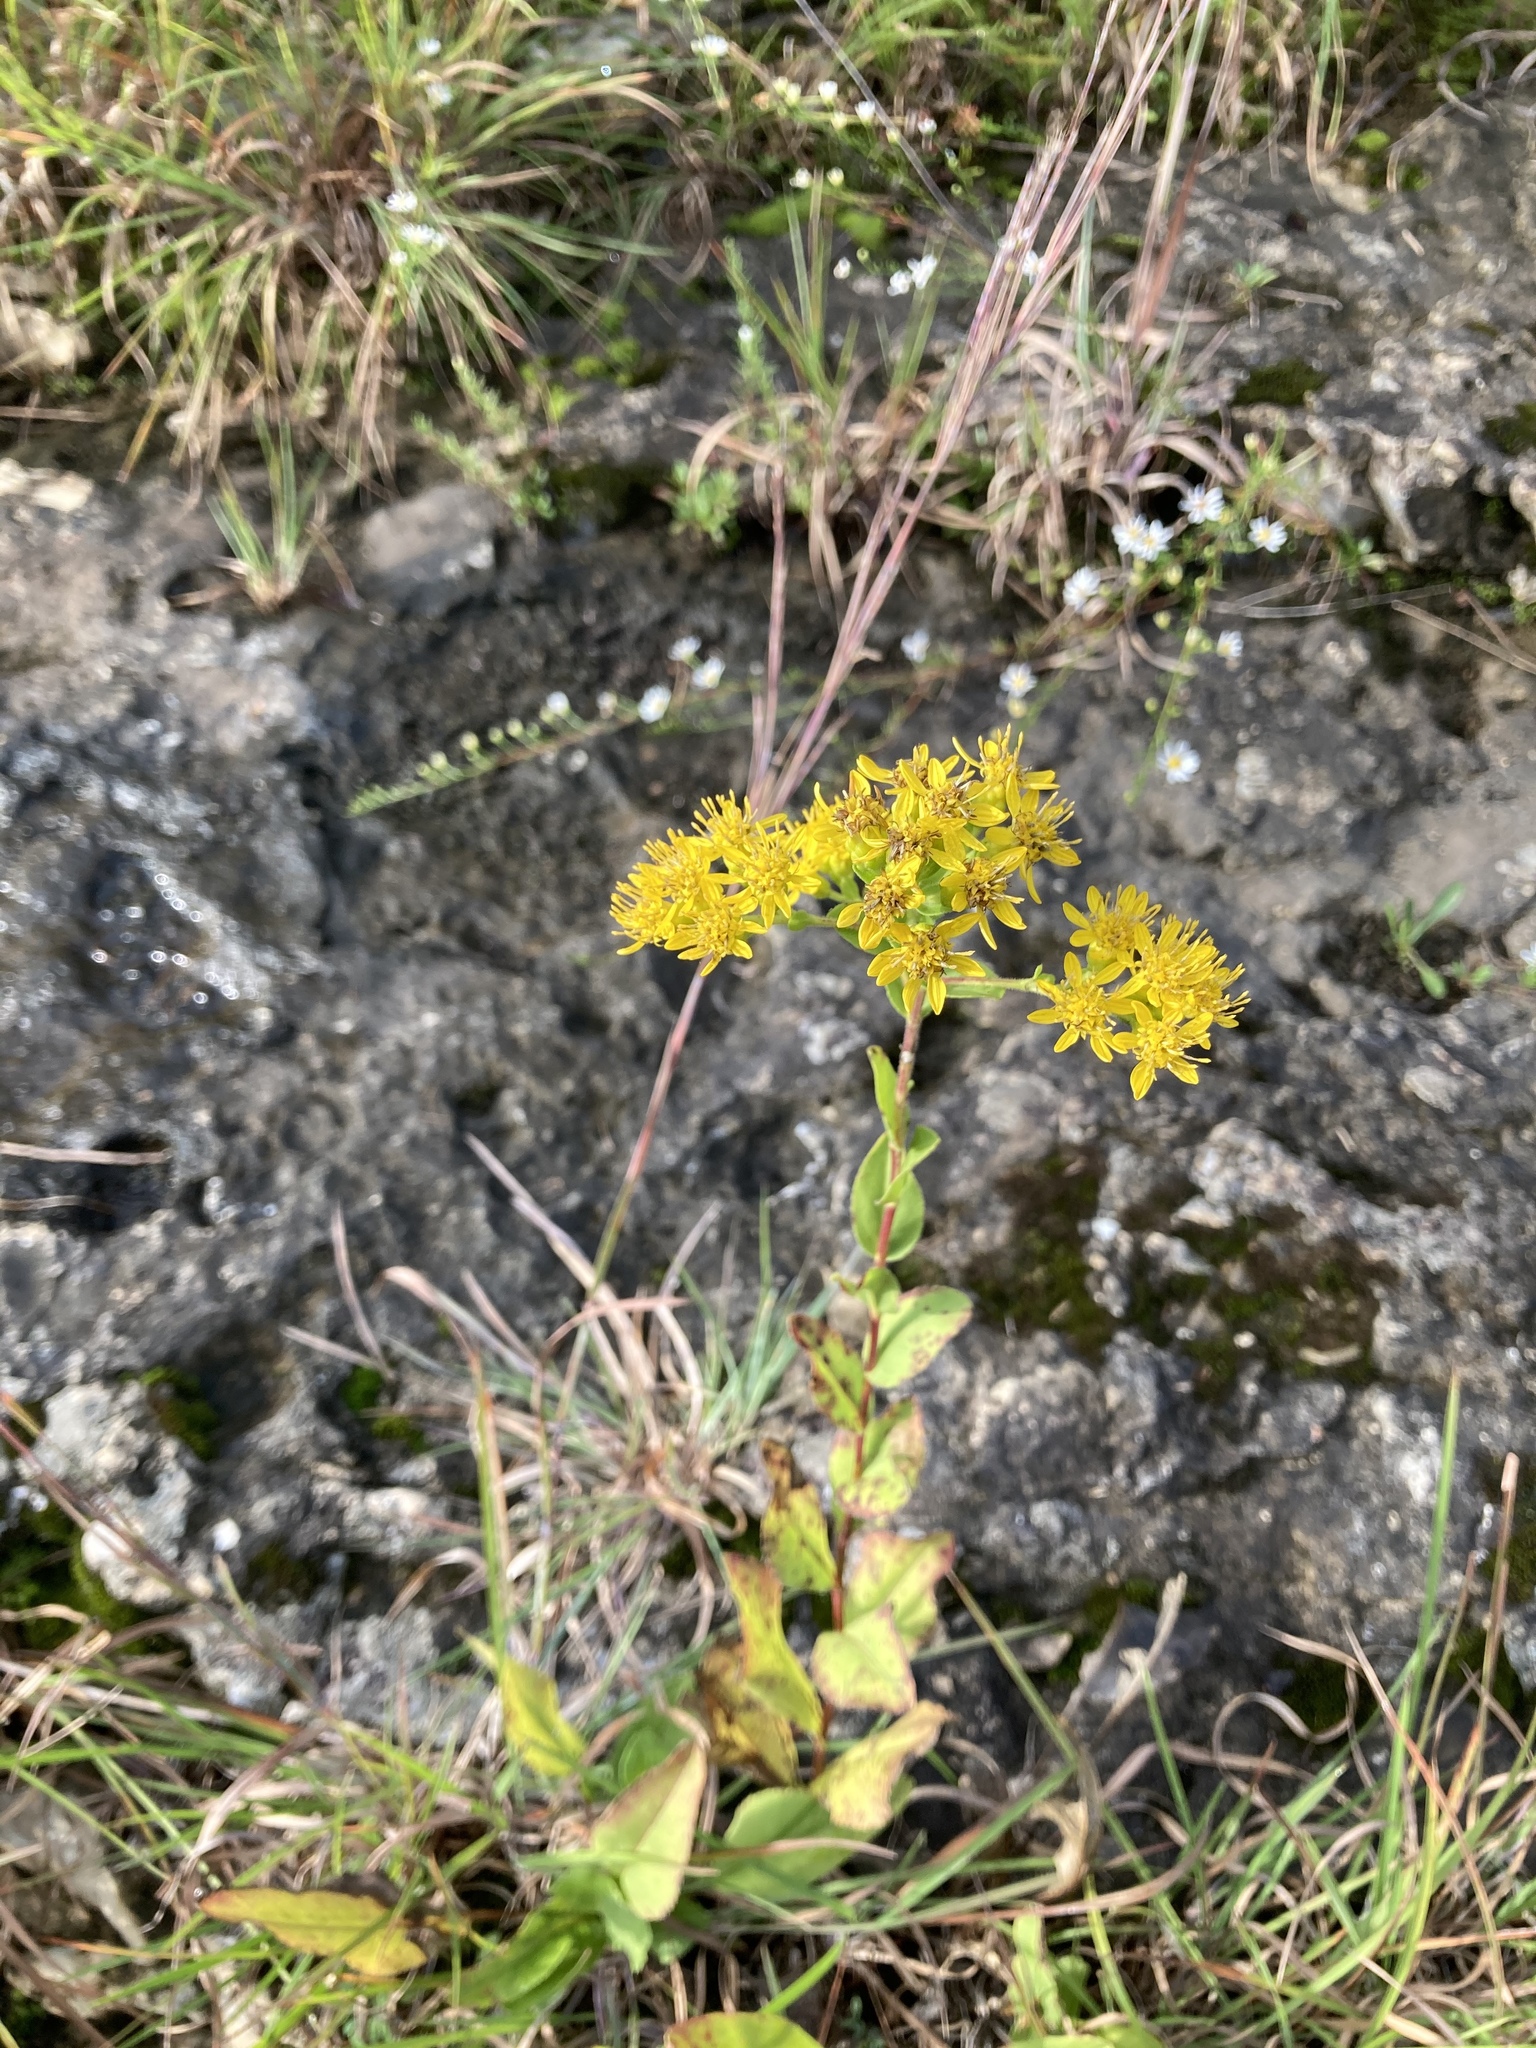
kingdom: Plantae
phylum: Tracheophyta
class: Magnoliopsida
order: Asterales
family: Asteraceae
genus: Solidago
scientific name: Solidago rigida
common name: Rigid goldenrod
